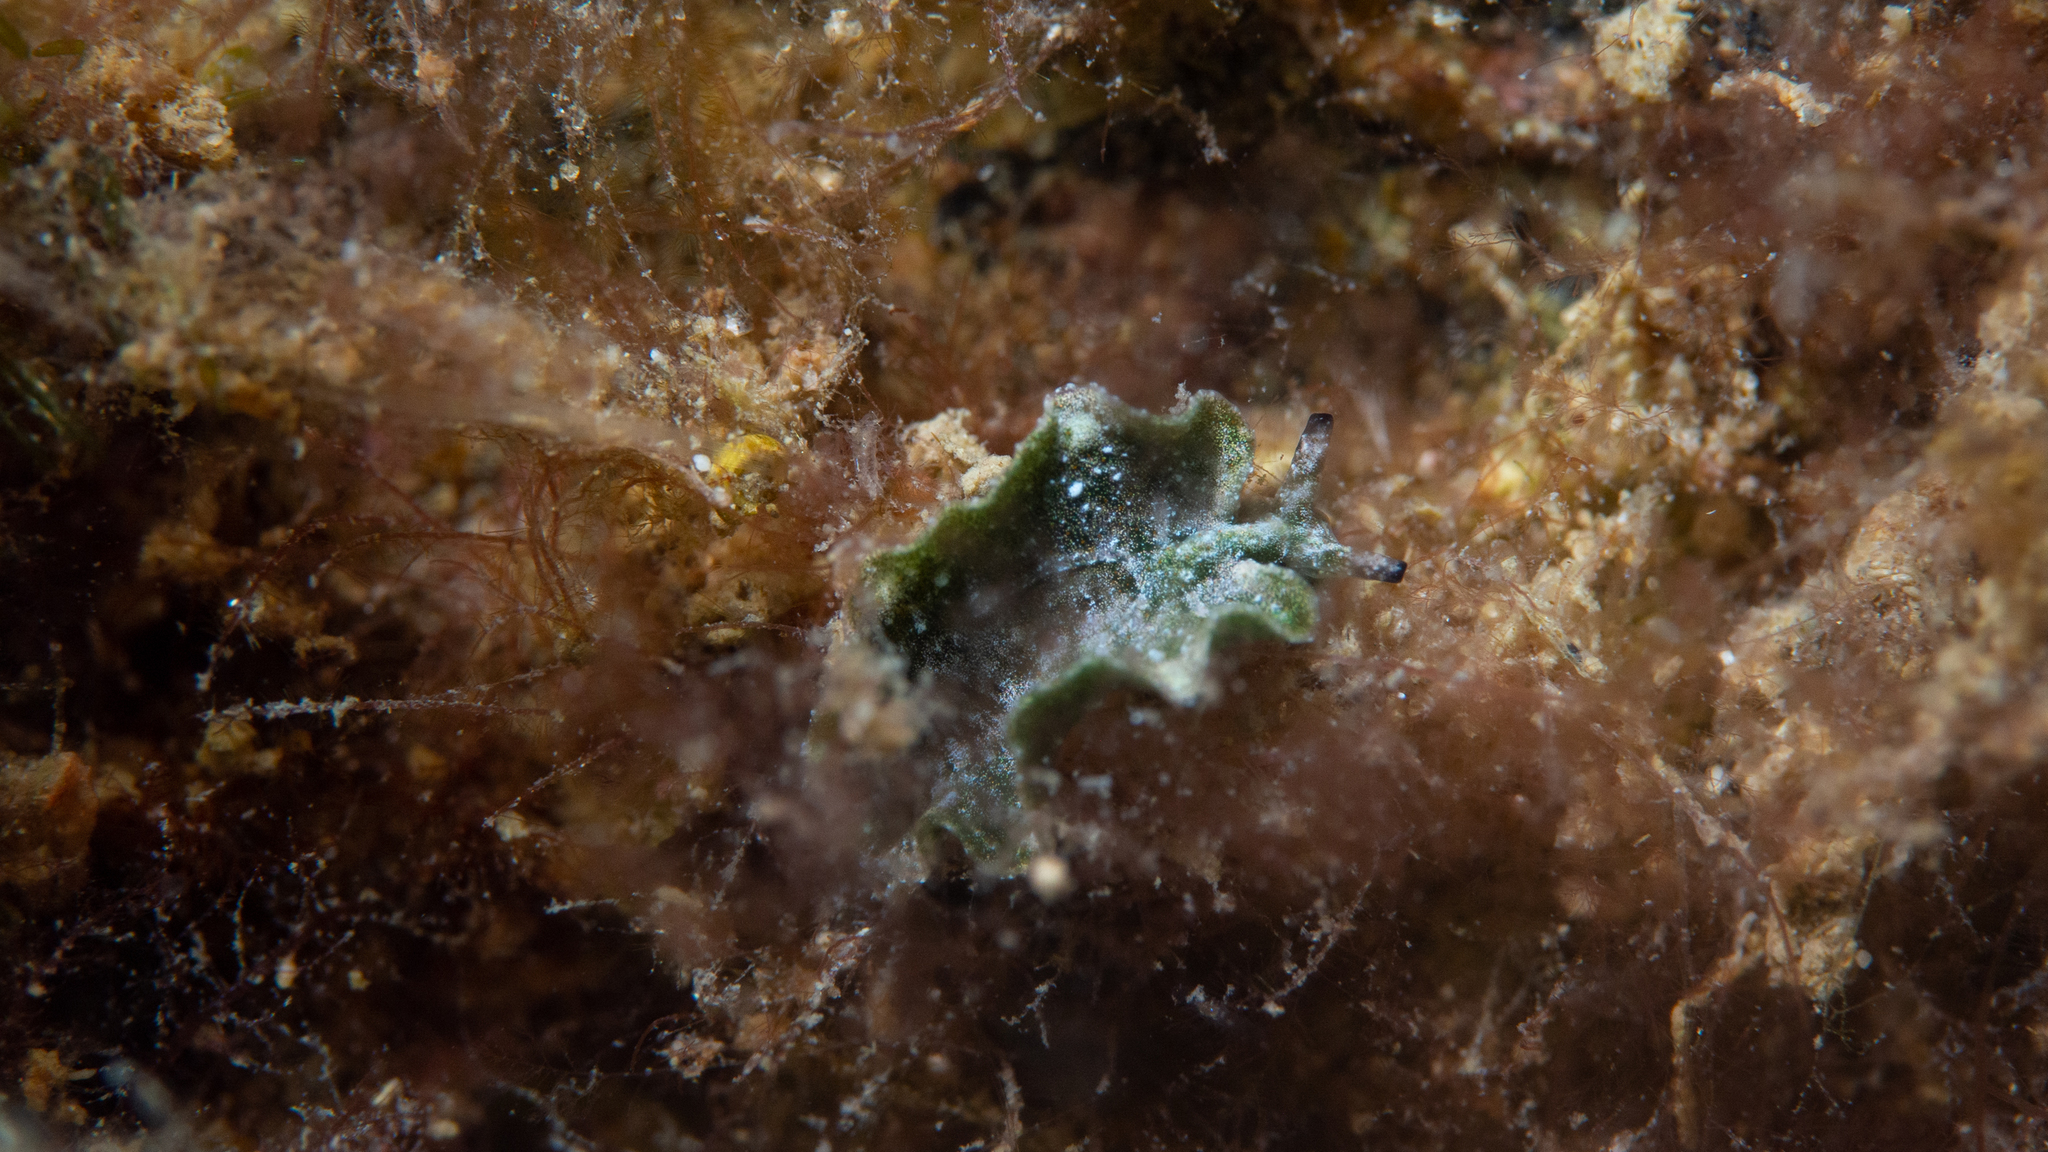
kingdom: Animalia
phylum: Mollusca
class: Gastropoda
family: Plakobranchidae
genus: Elysia
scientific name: Elysia maoria
